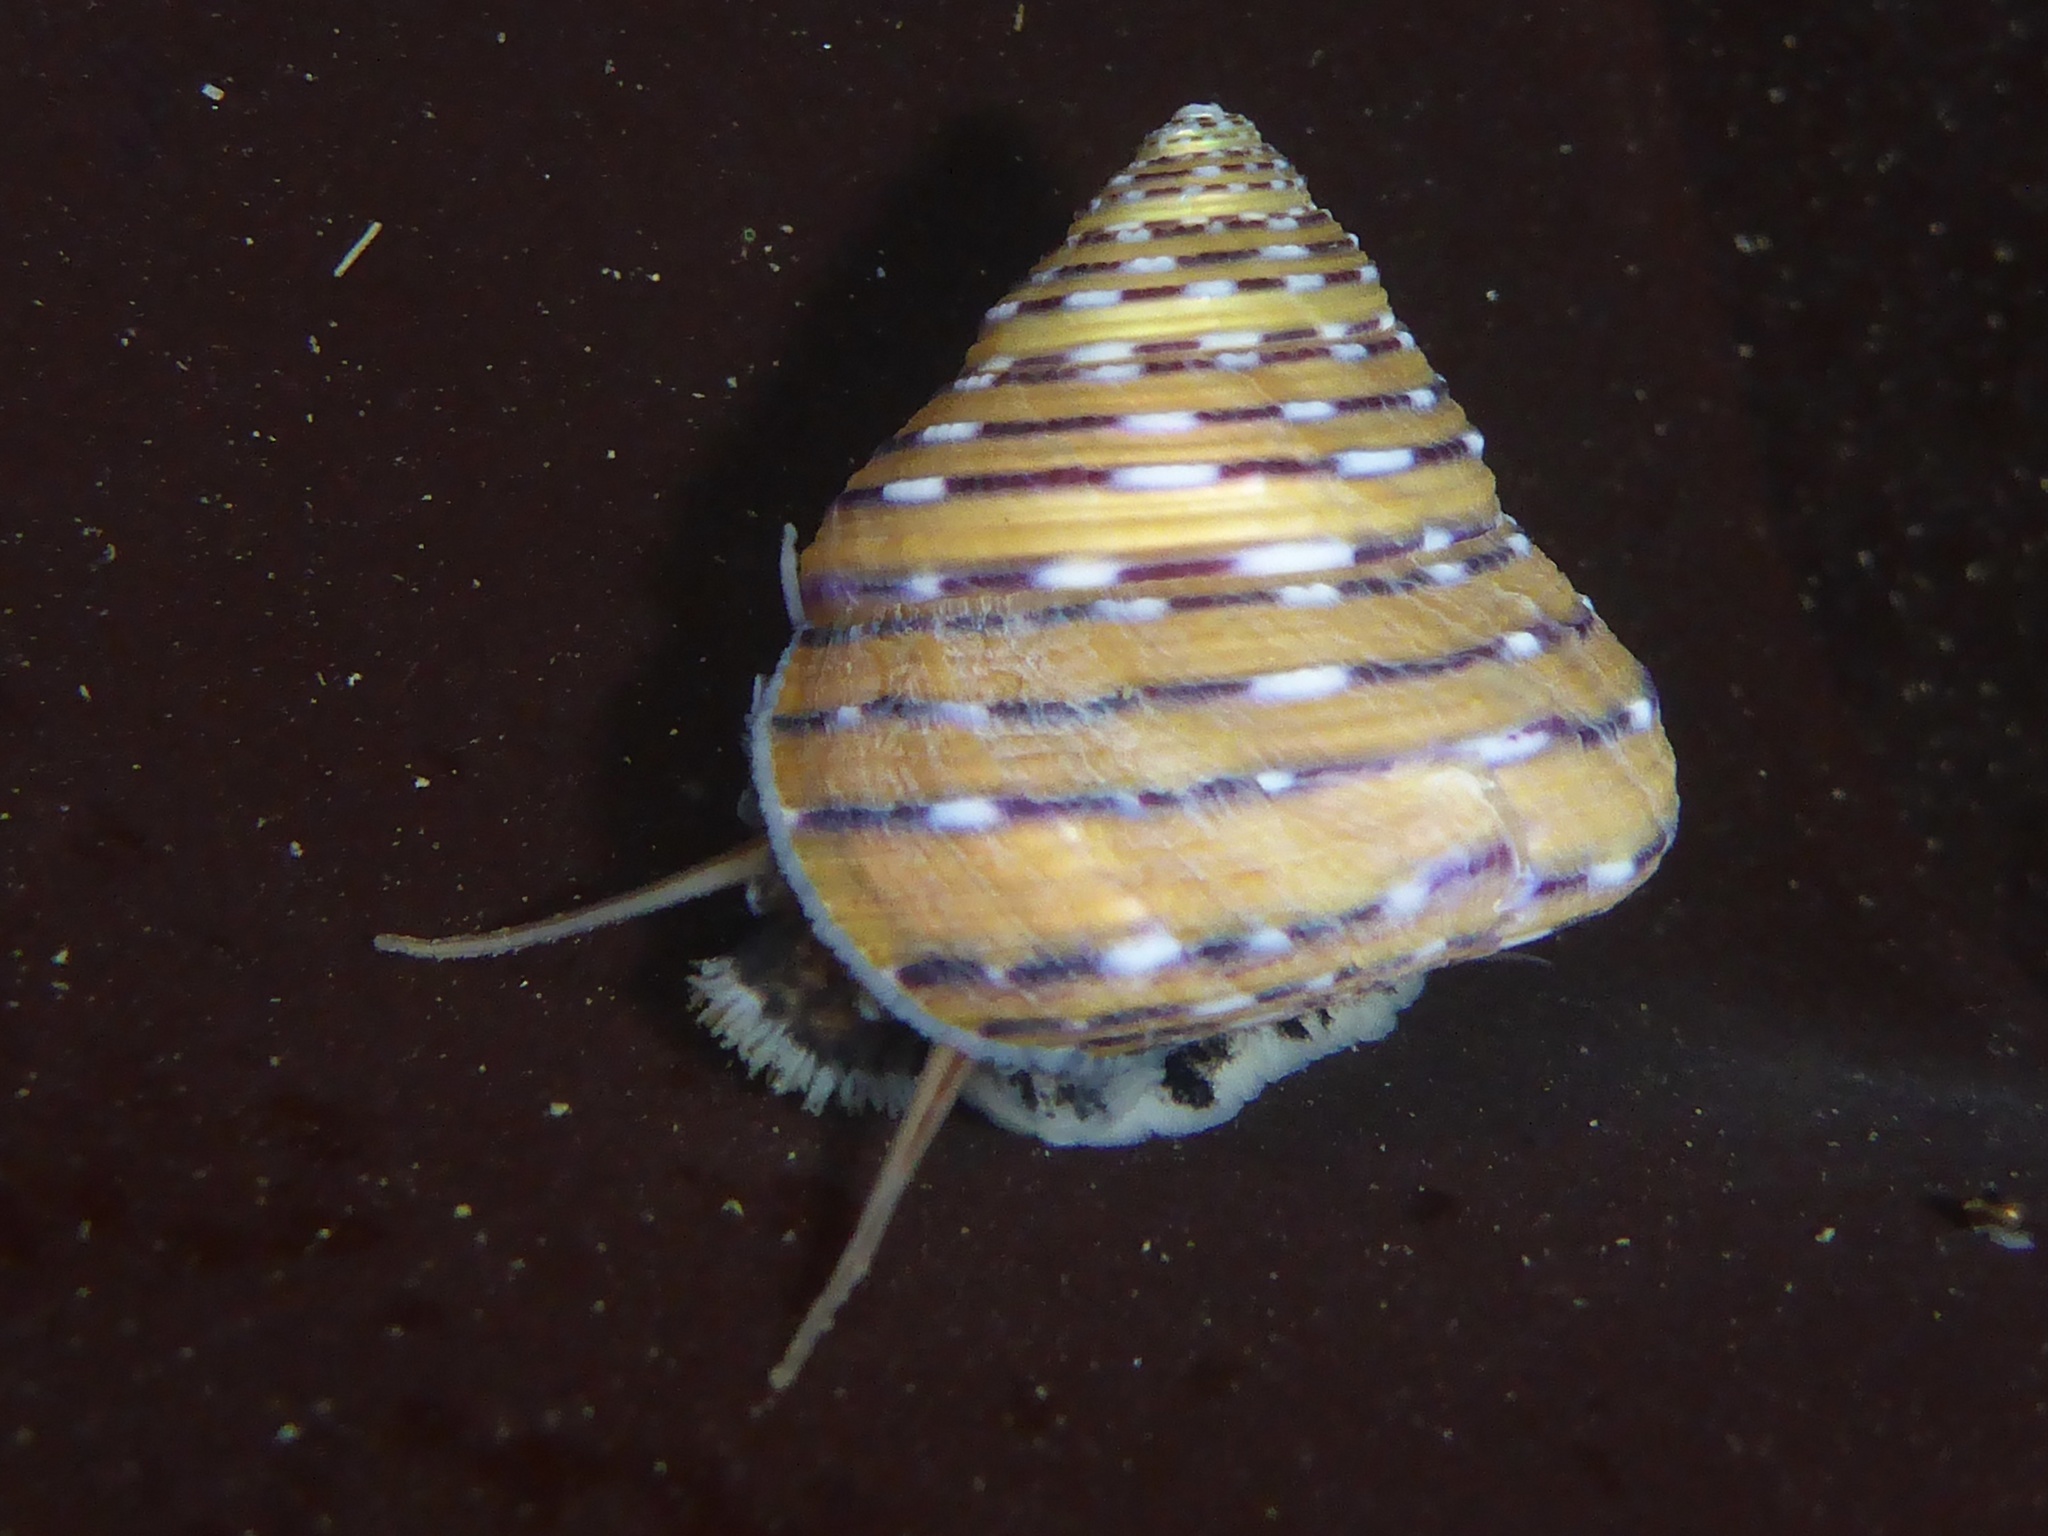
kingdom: Animalia
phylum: Mollusca
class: Gastropoda
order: Trochida
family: Calliostomatidae
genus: Calliostoma
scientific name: Calliostoma tricolor
